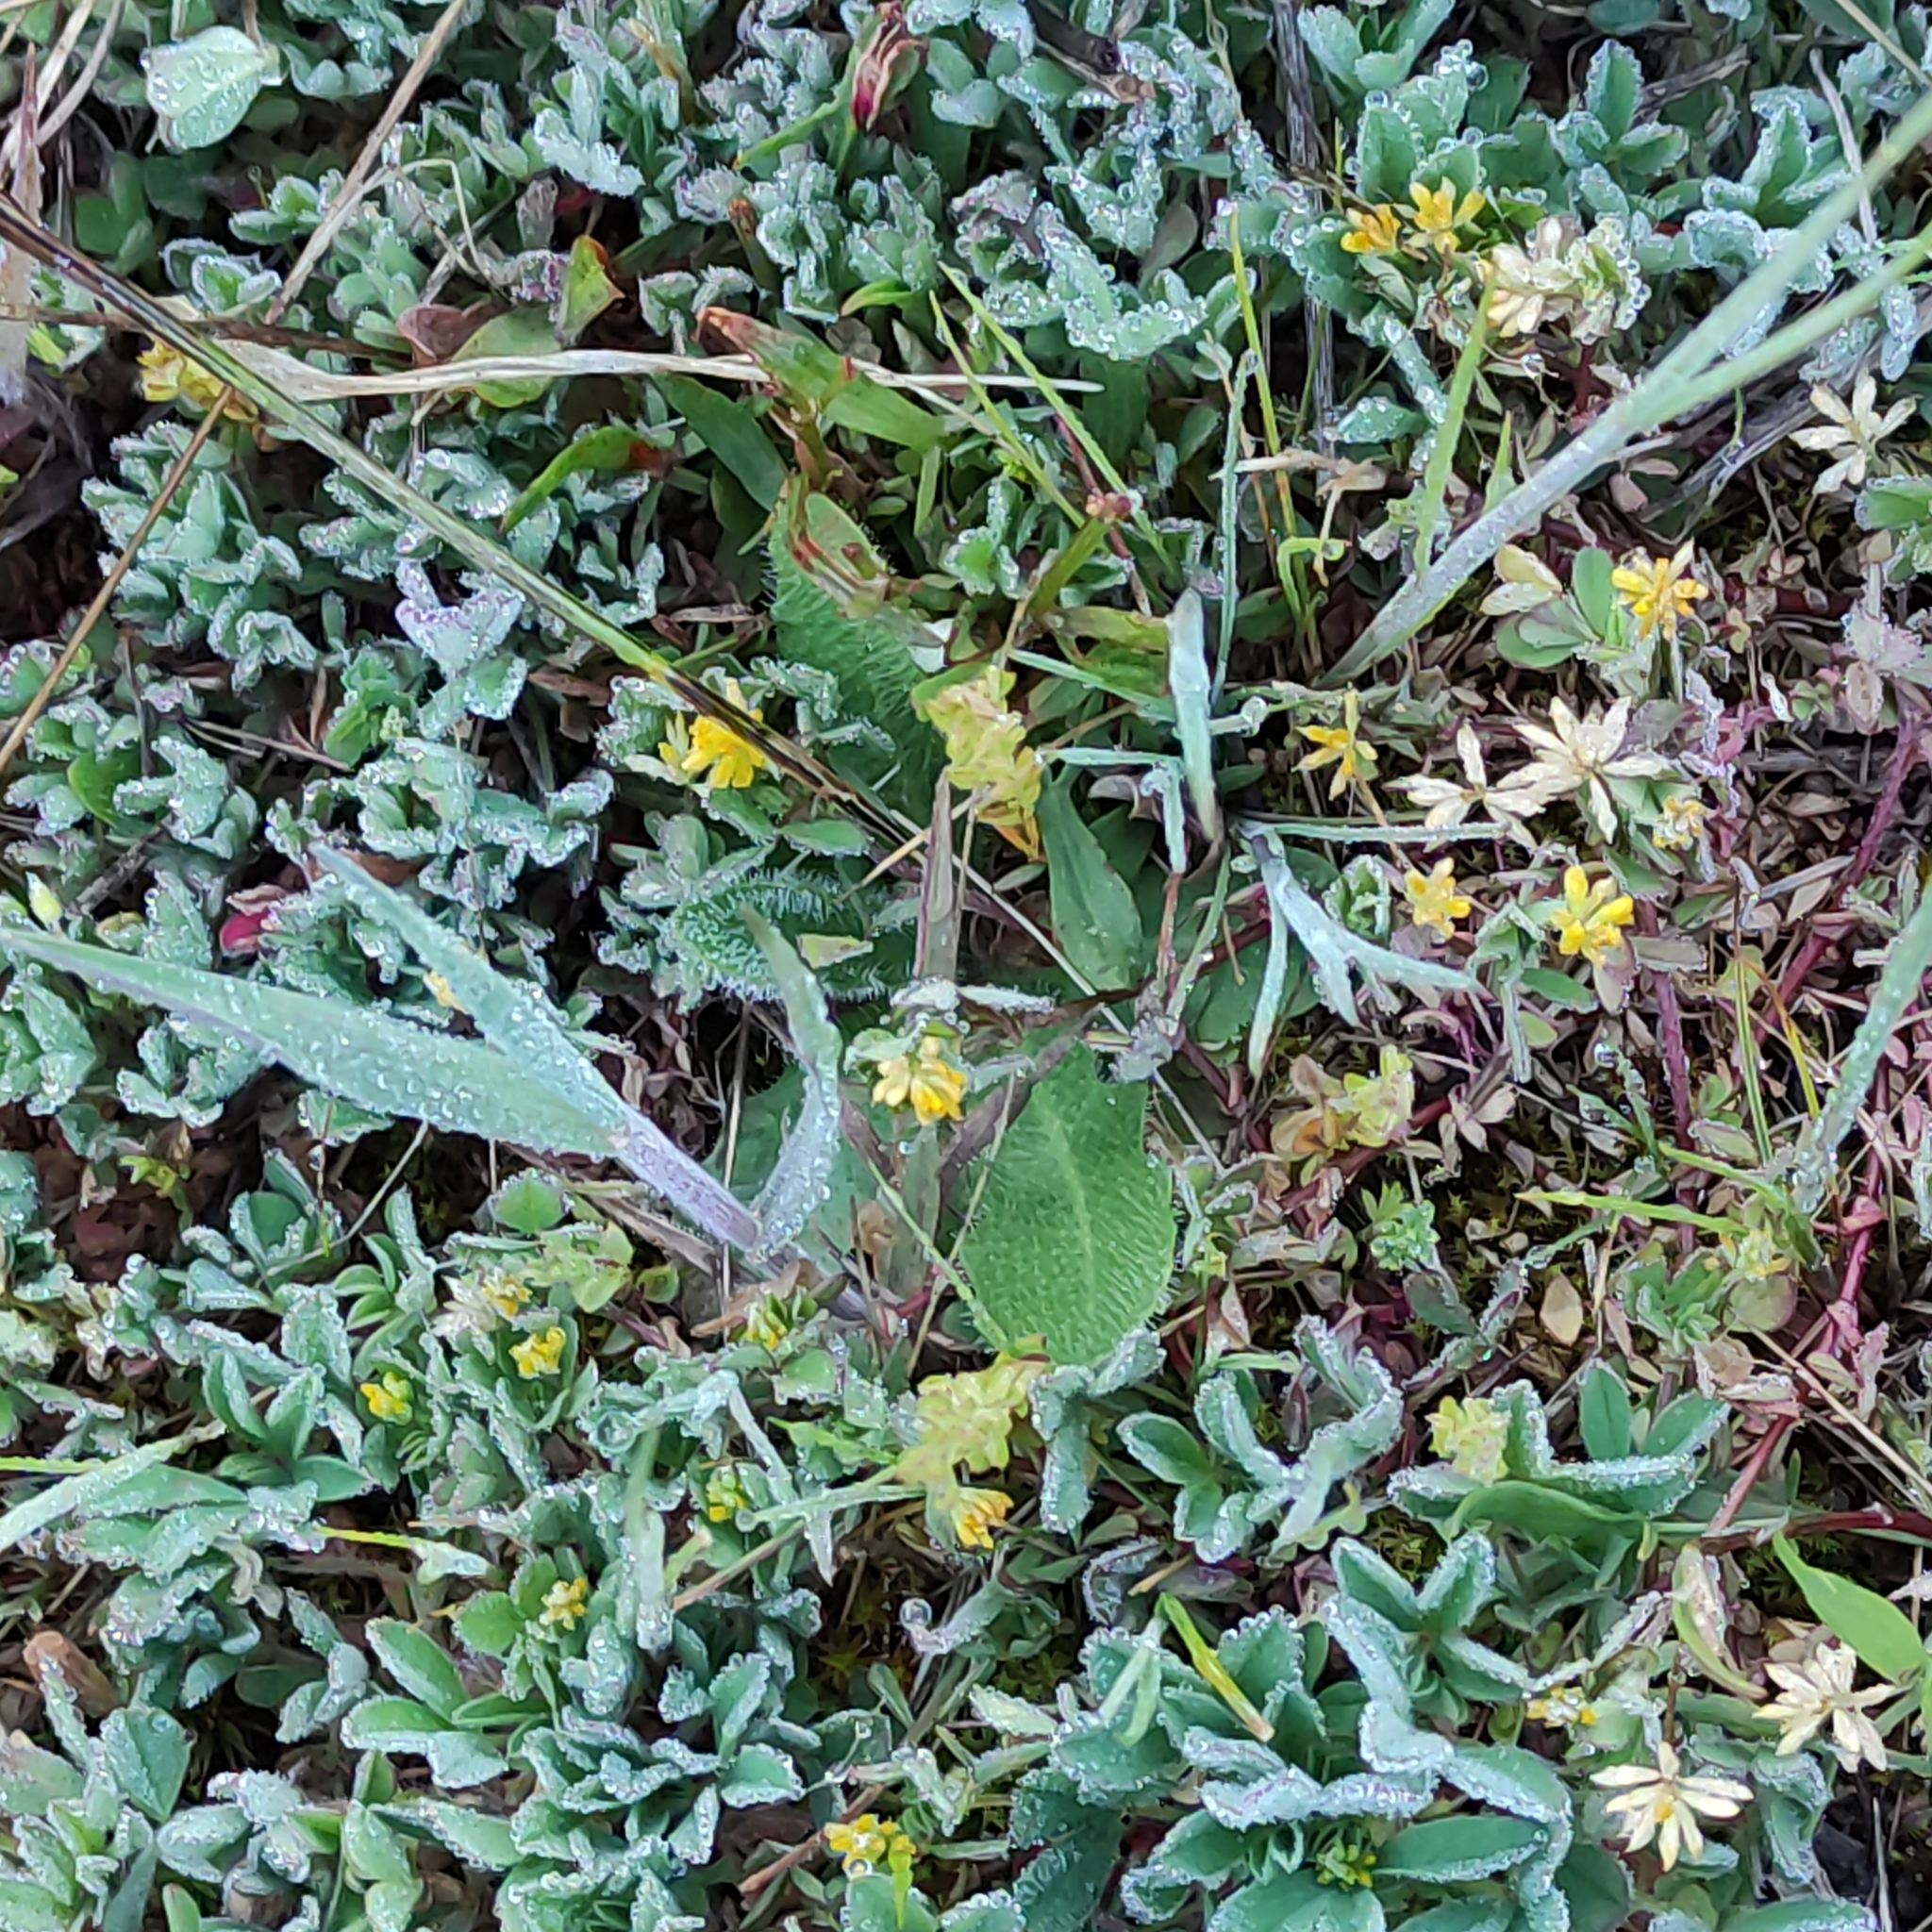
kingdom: Plantae
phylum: Tracheophyta
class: Magnoliopsida
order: Fabales
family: Fabaceae
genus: Trifolium
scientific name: Trifolium dubium
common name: Suckling clover
